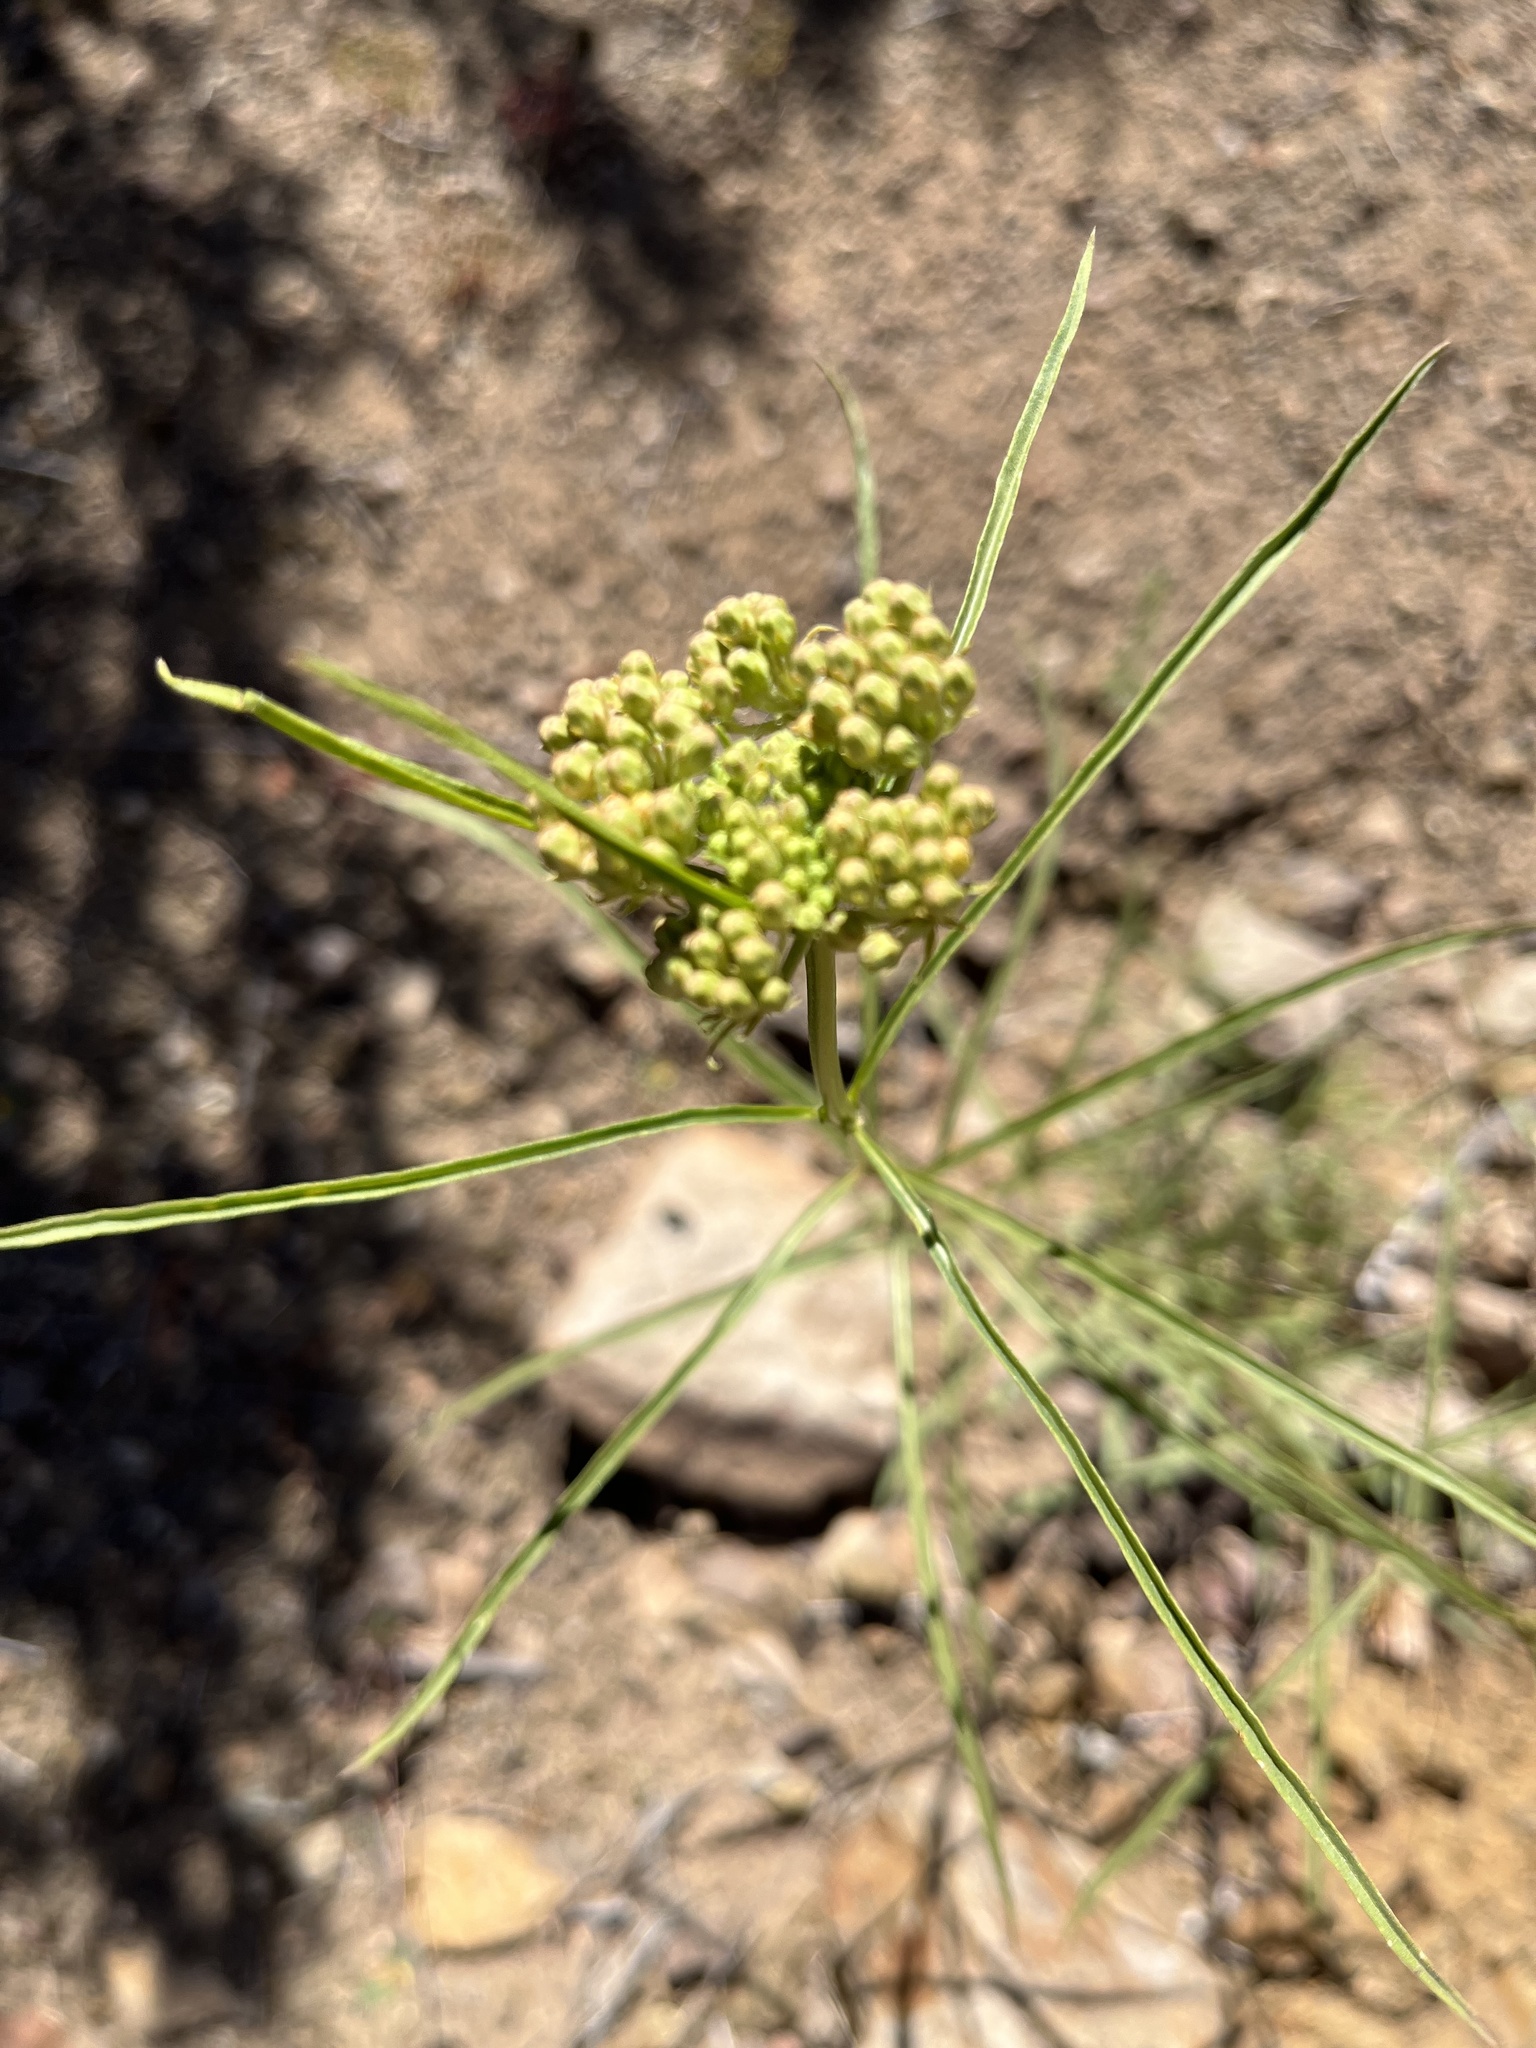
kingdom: Plantae
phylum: Tracheophyta
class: Magnoliopsida
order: Gentianales
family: Apocynaceae
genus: Asclepias
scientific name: Asclepias fascicularis
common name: Mexican milkweed
